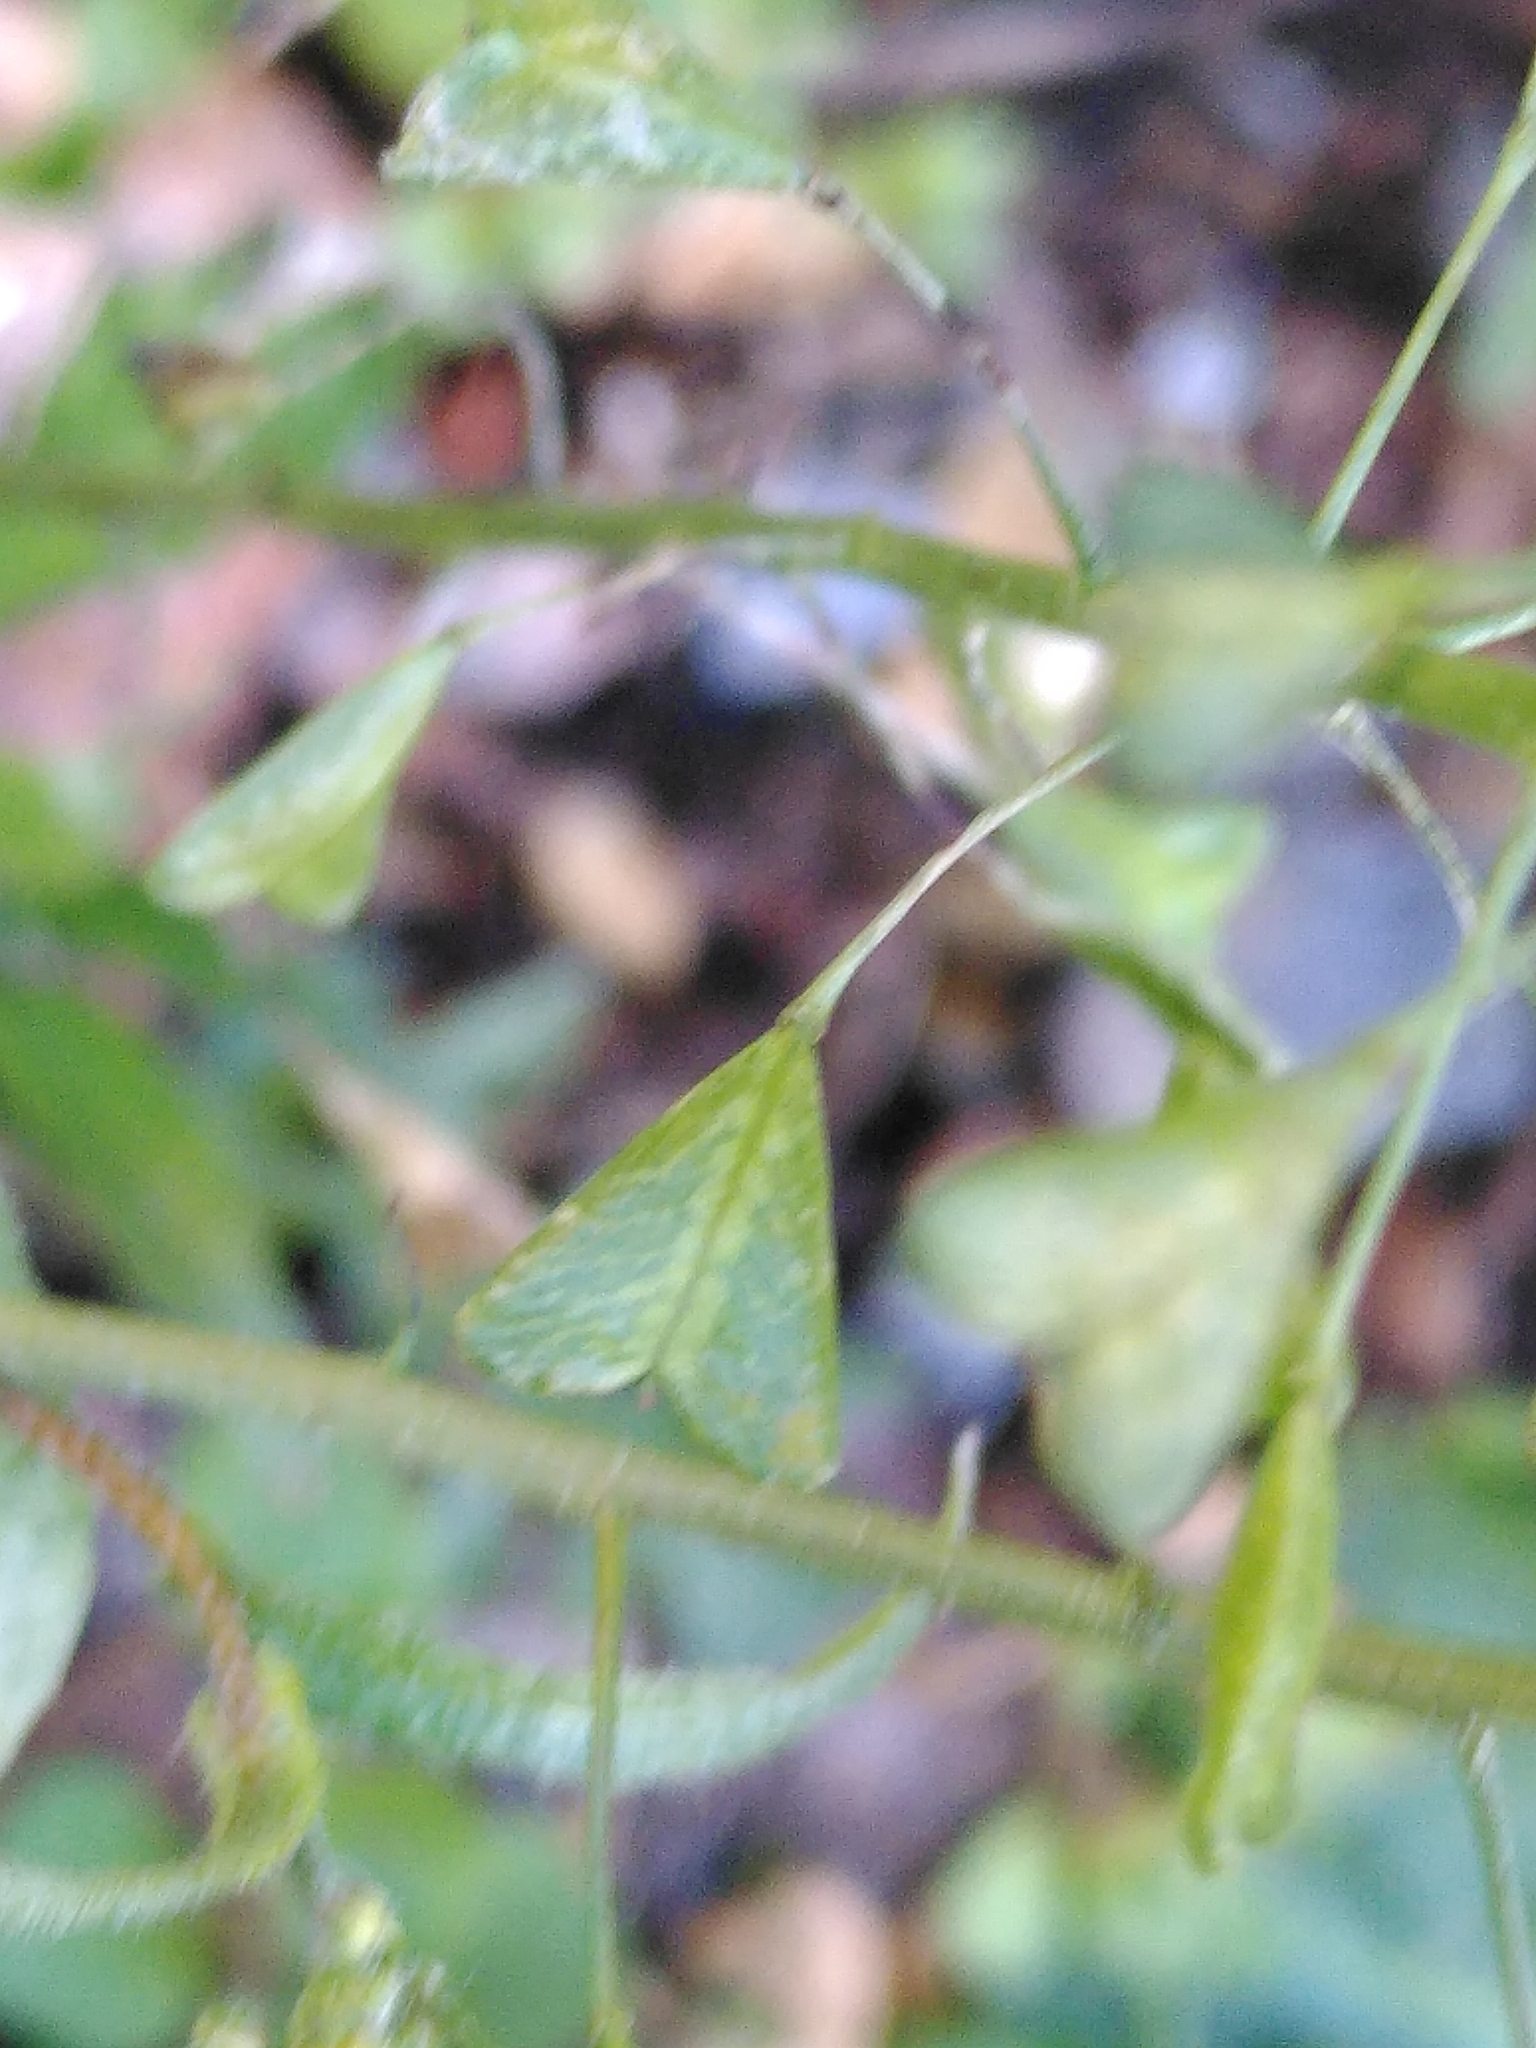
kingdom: Plantae
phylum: Tracheophyta
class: Magnoliopsida
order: Brassicales
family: Brassicaceae
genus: Capsella
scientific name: Capsella bursa-pastoris
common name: Shepherd's purse
